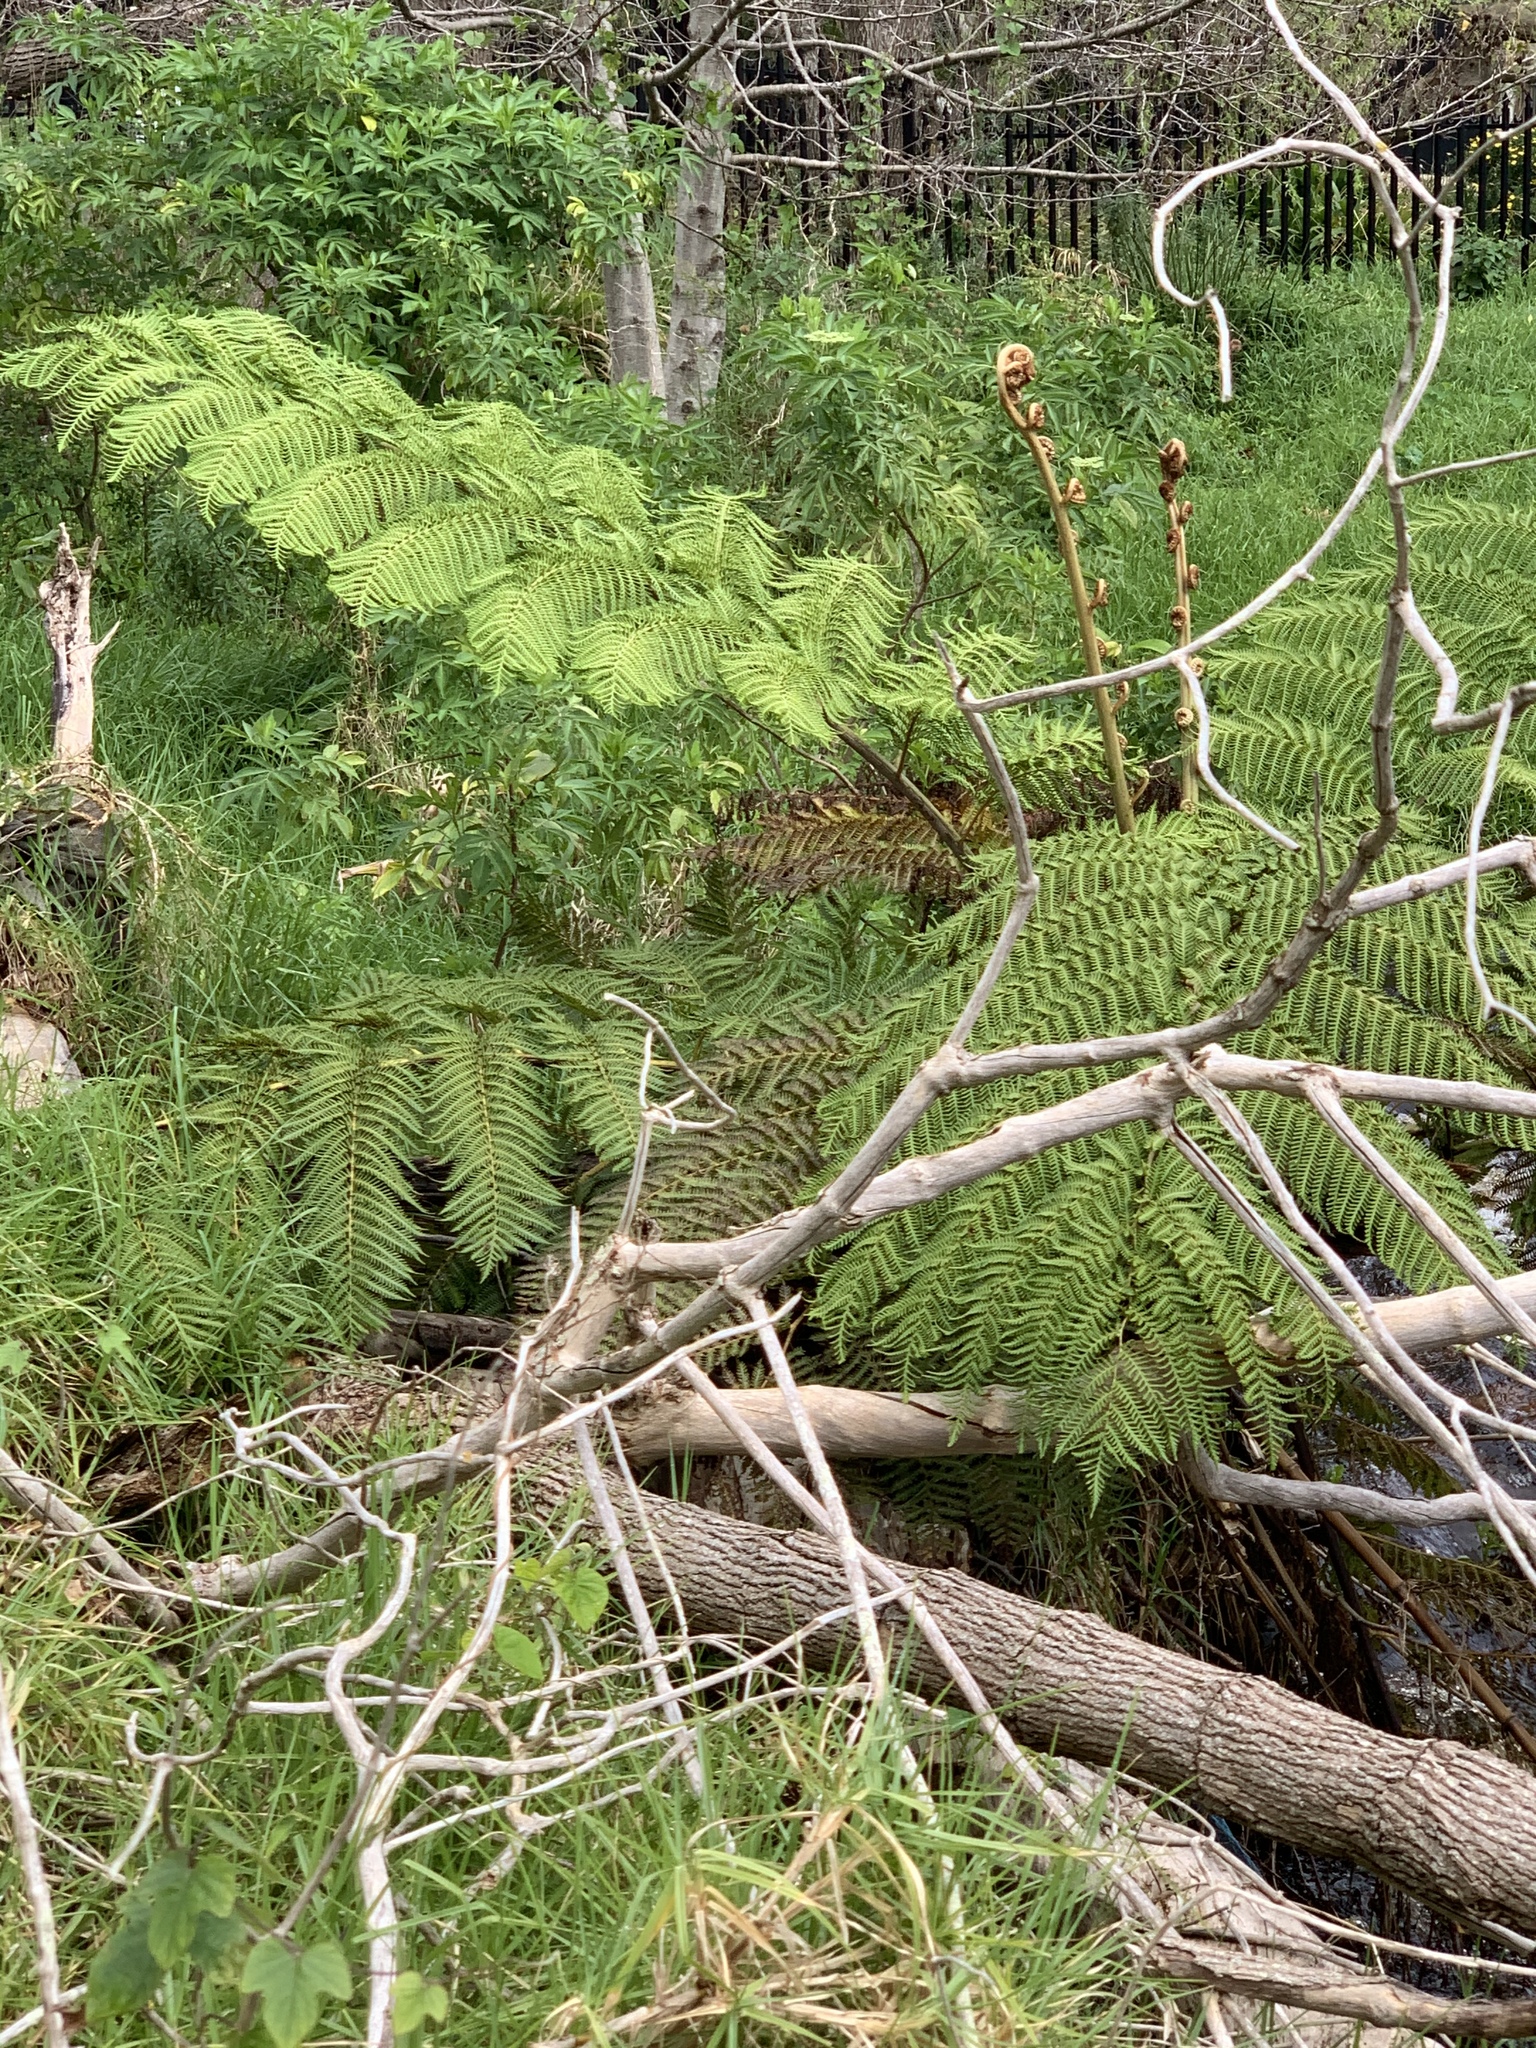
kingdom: Plantae
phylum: Tracheophyta
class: Polypodiopsida
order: Cyatheales
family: Cyatheaceae
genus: Sphaeropteris
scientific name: Sphaeropteris cooperi
